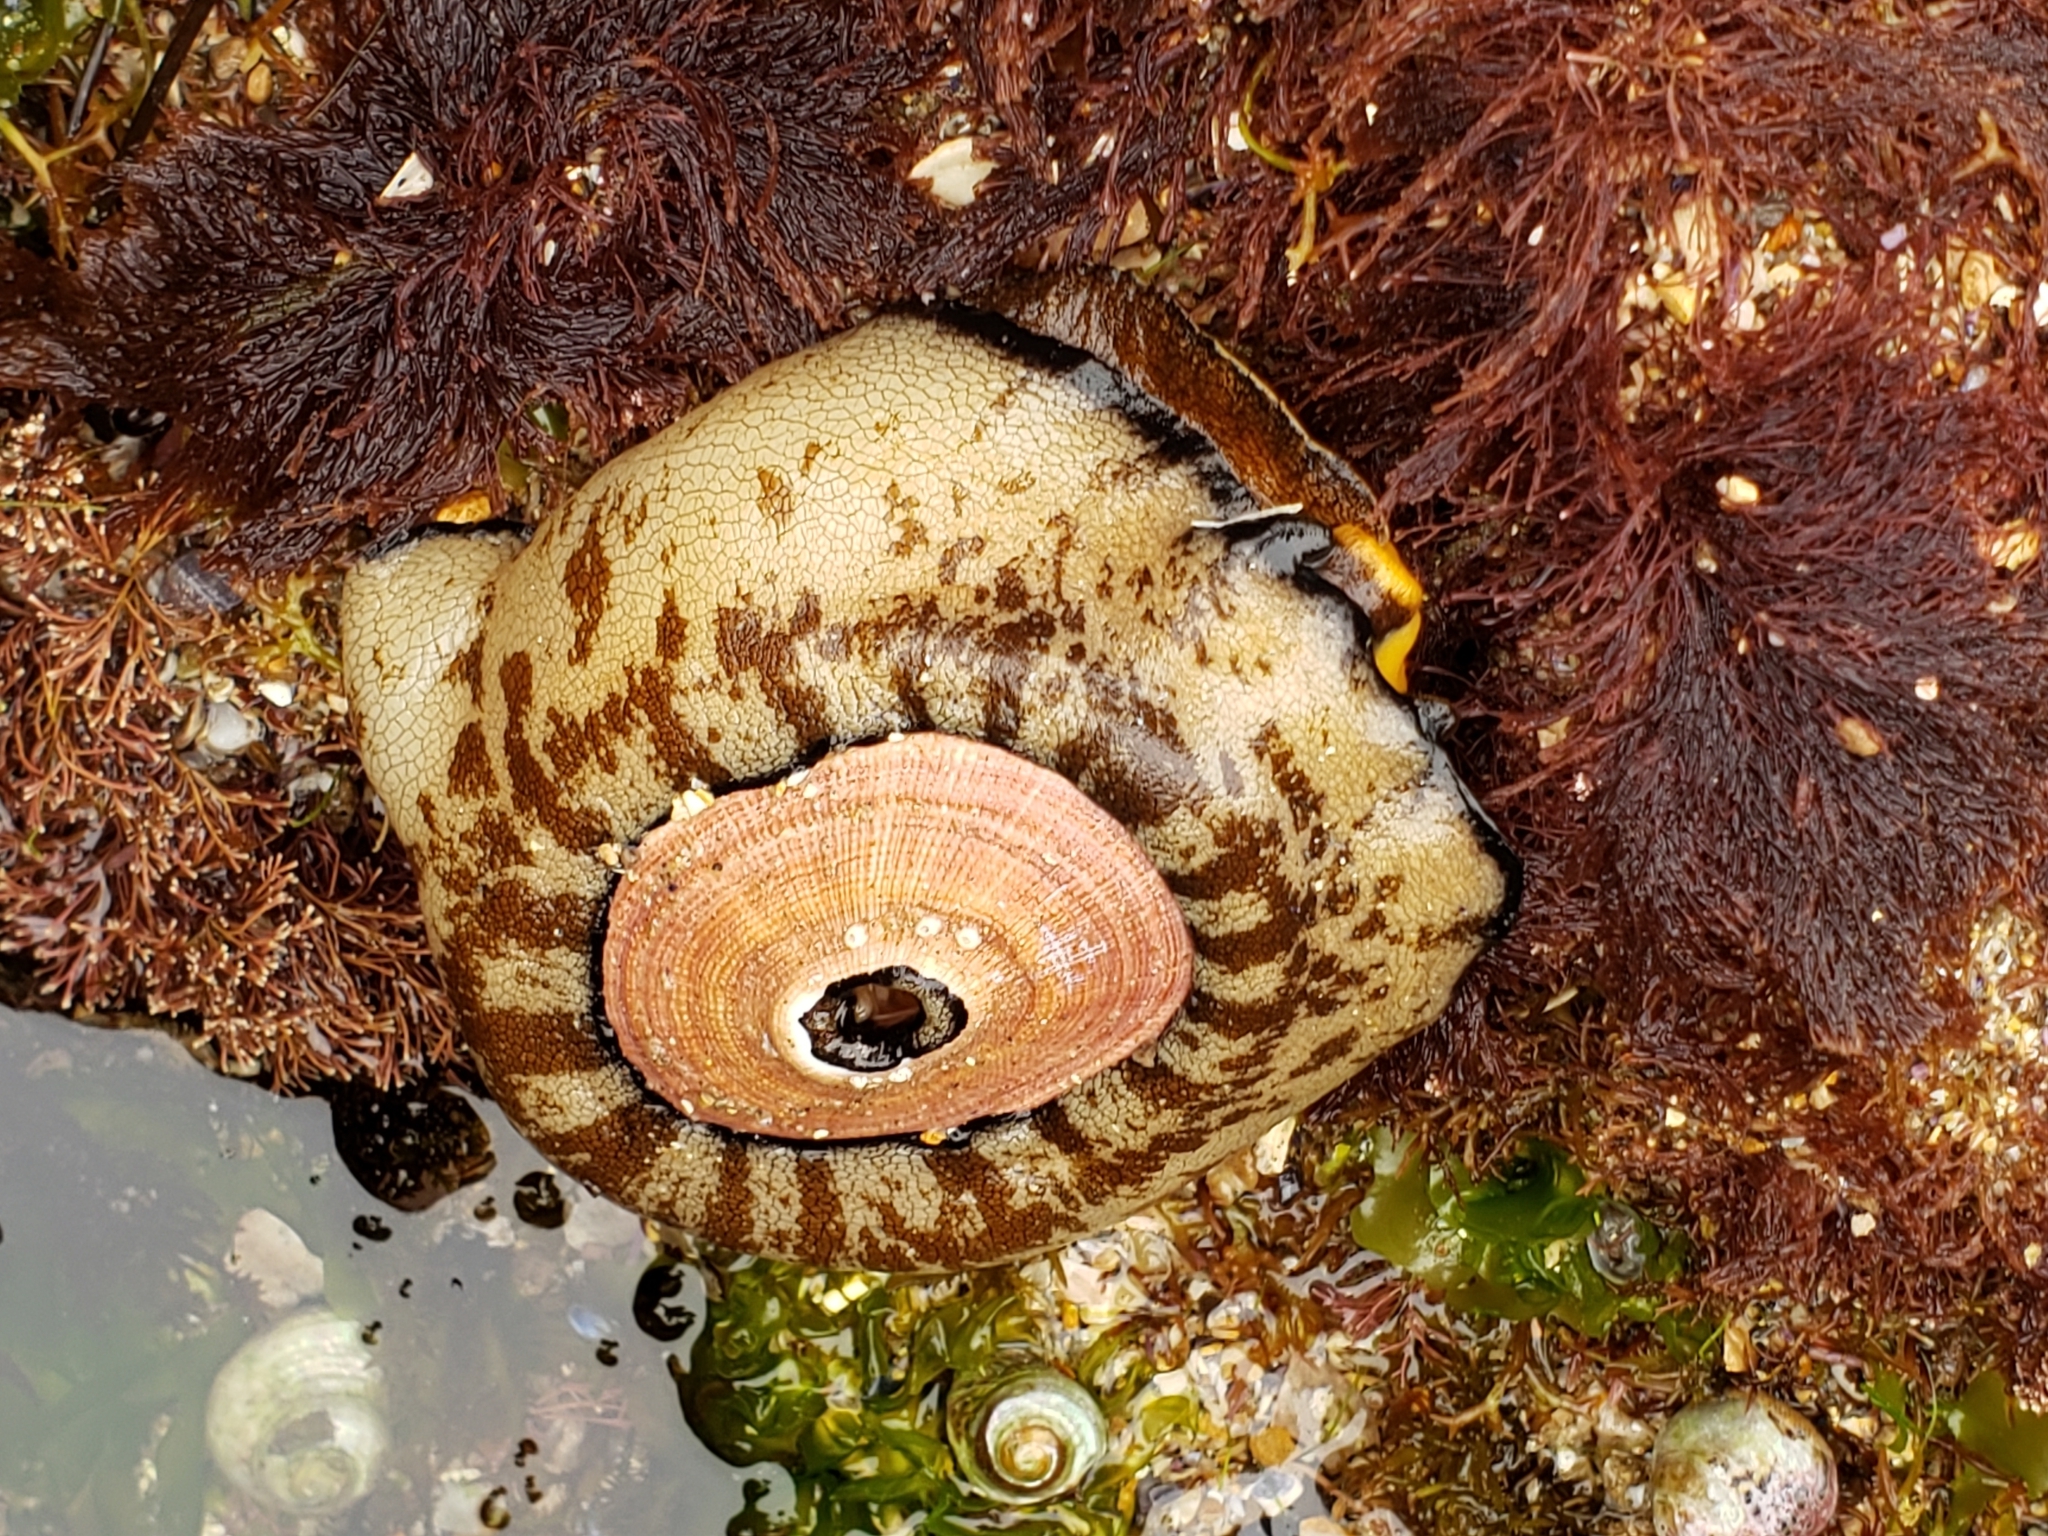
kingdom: Animalia
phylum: Mollusca
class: Gastropoda
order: Lepetellida
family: Fissurellidae
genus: Megathura
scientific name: Megathura crenulata
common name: Giant keyhole limpet
